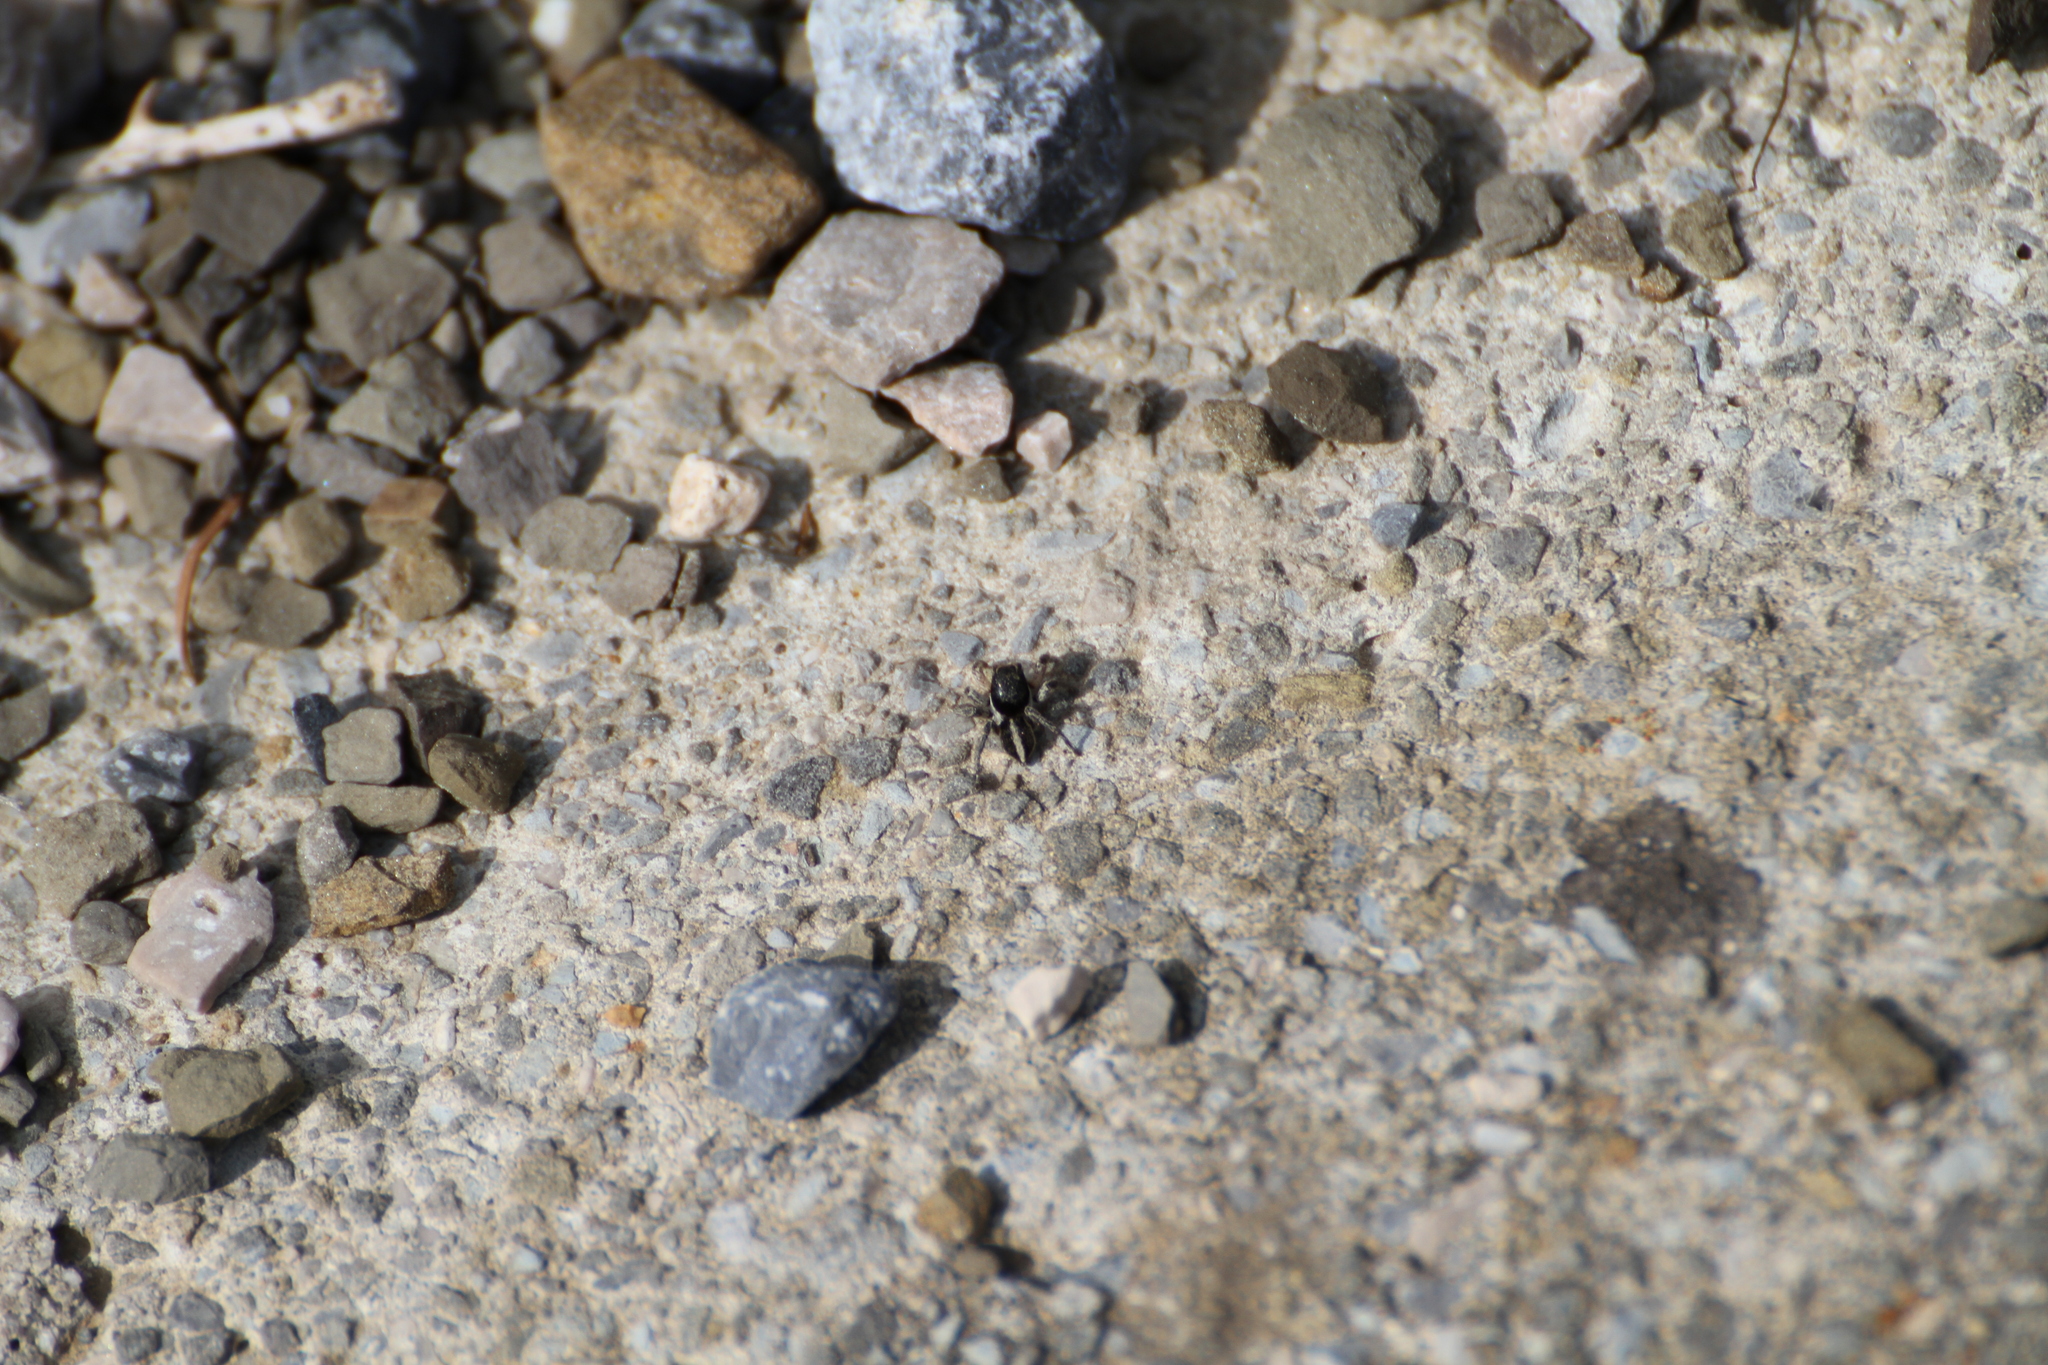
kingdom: Animalia
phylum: Arthropoda
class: Arachnida
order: Araneae
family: Salticidae
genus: Aelurillus
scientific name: Aelurillus v-insignitus
